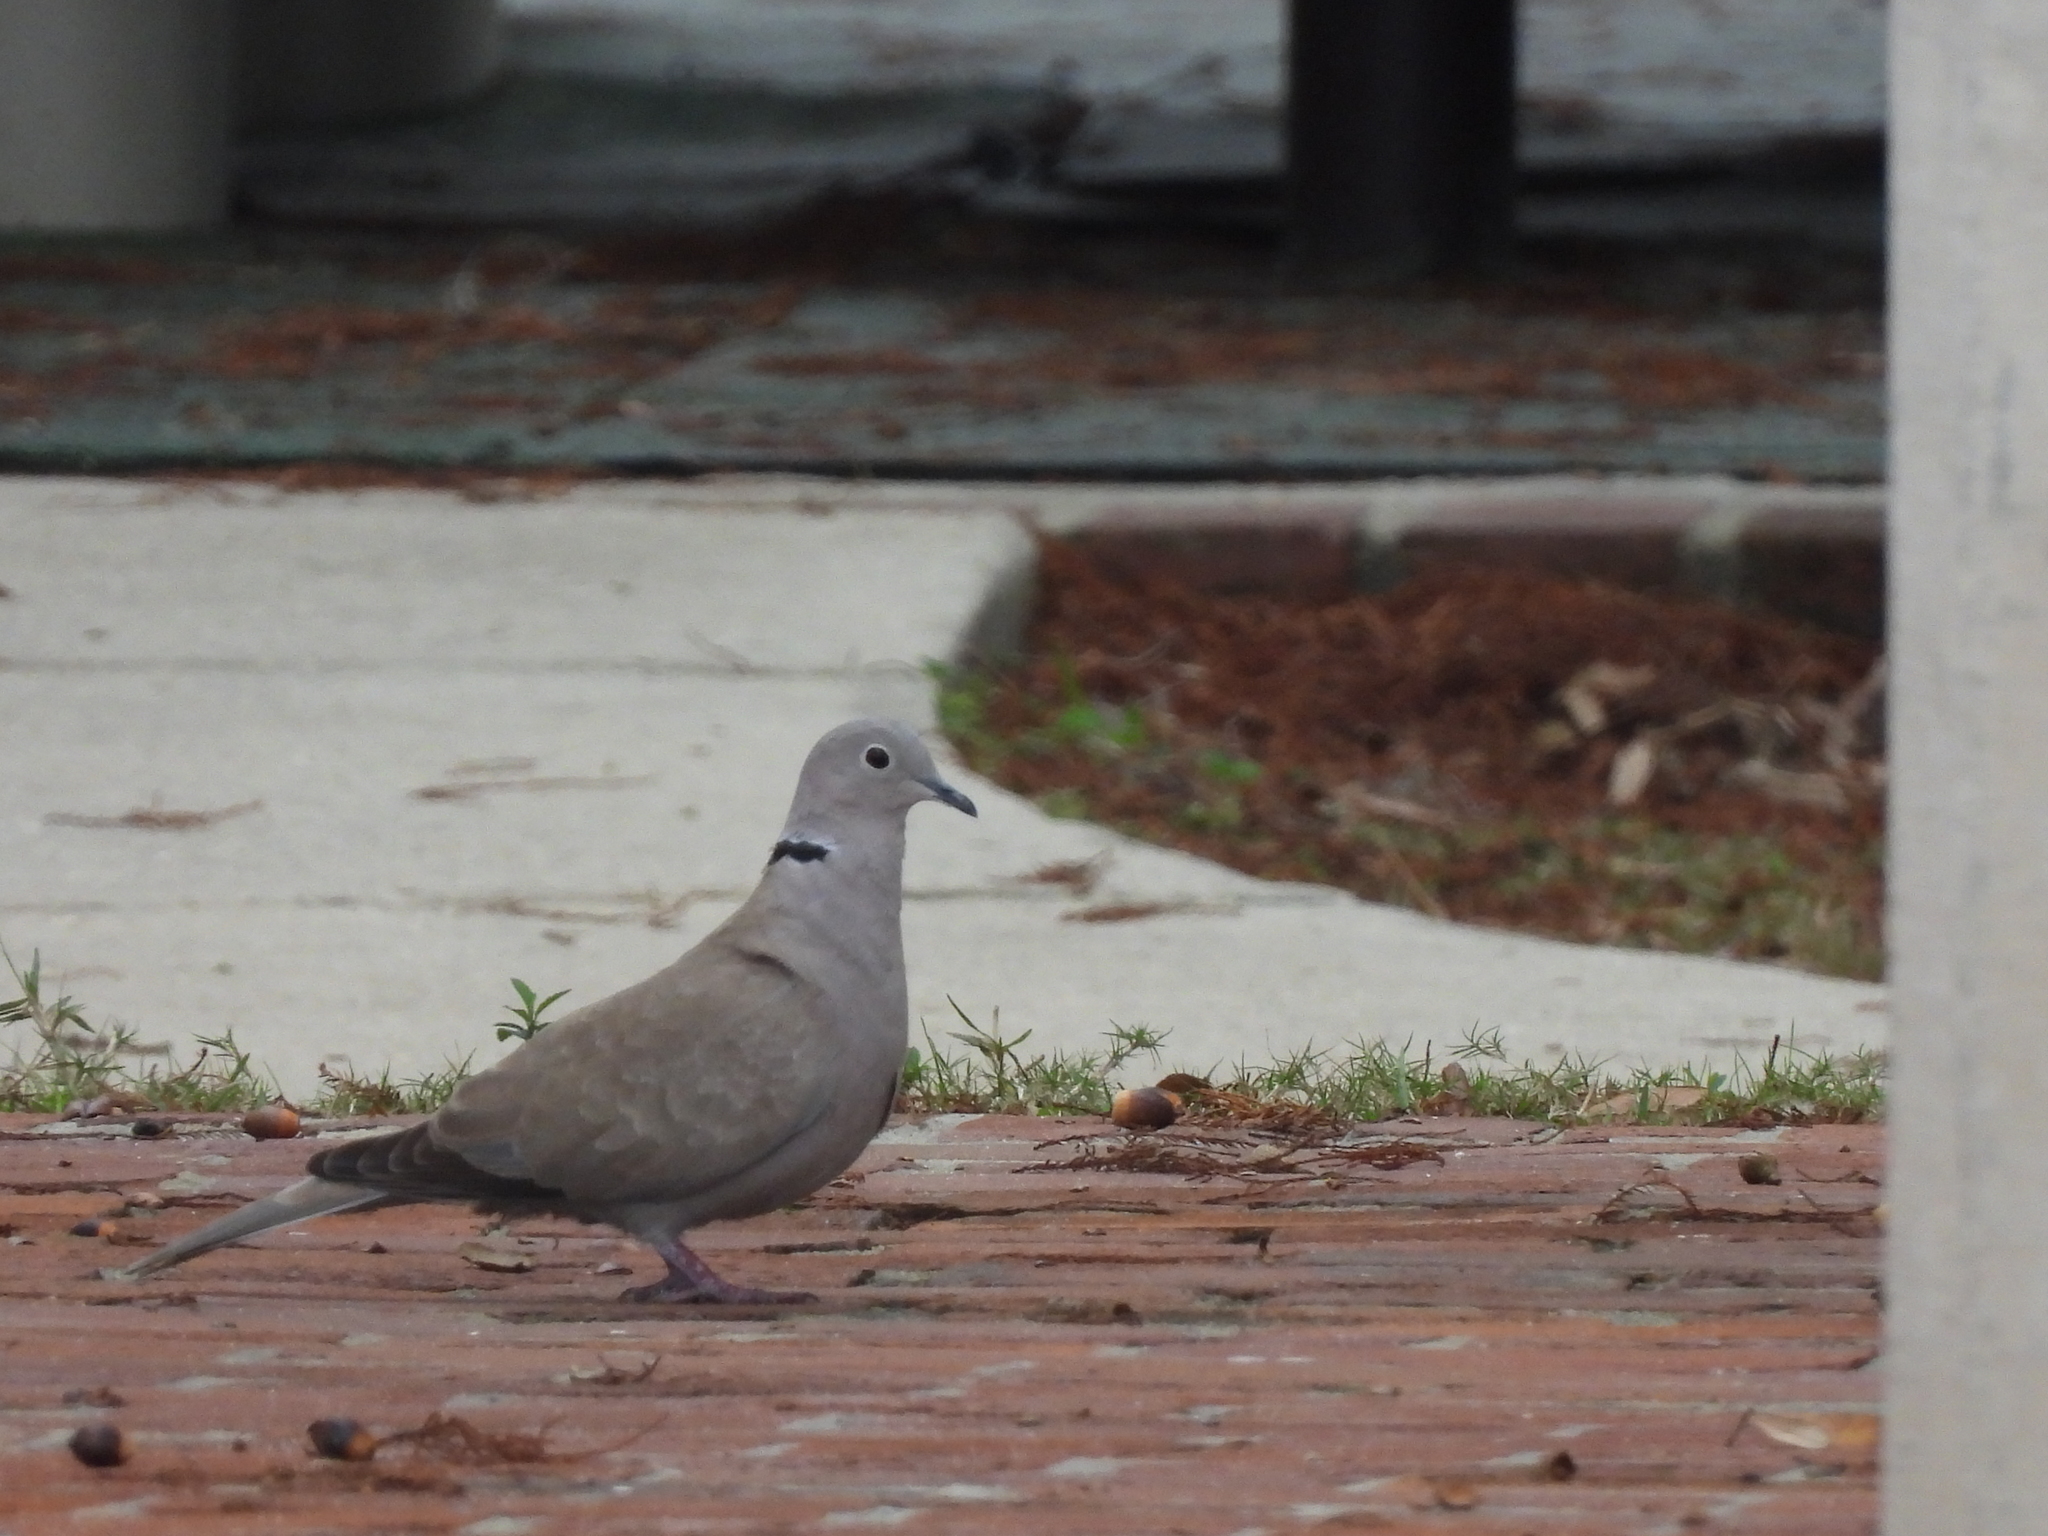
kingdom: Animalia
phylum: Chordata
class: Aves
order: Columbiformes
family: Columbidae
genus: Streptopelia
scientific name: Streptopelia decaocto
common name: Eurasian collared dove
